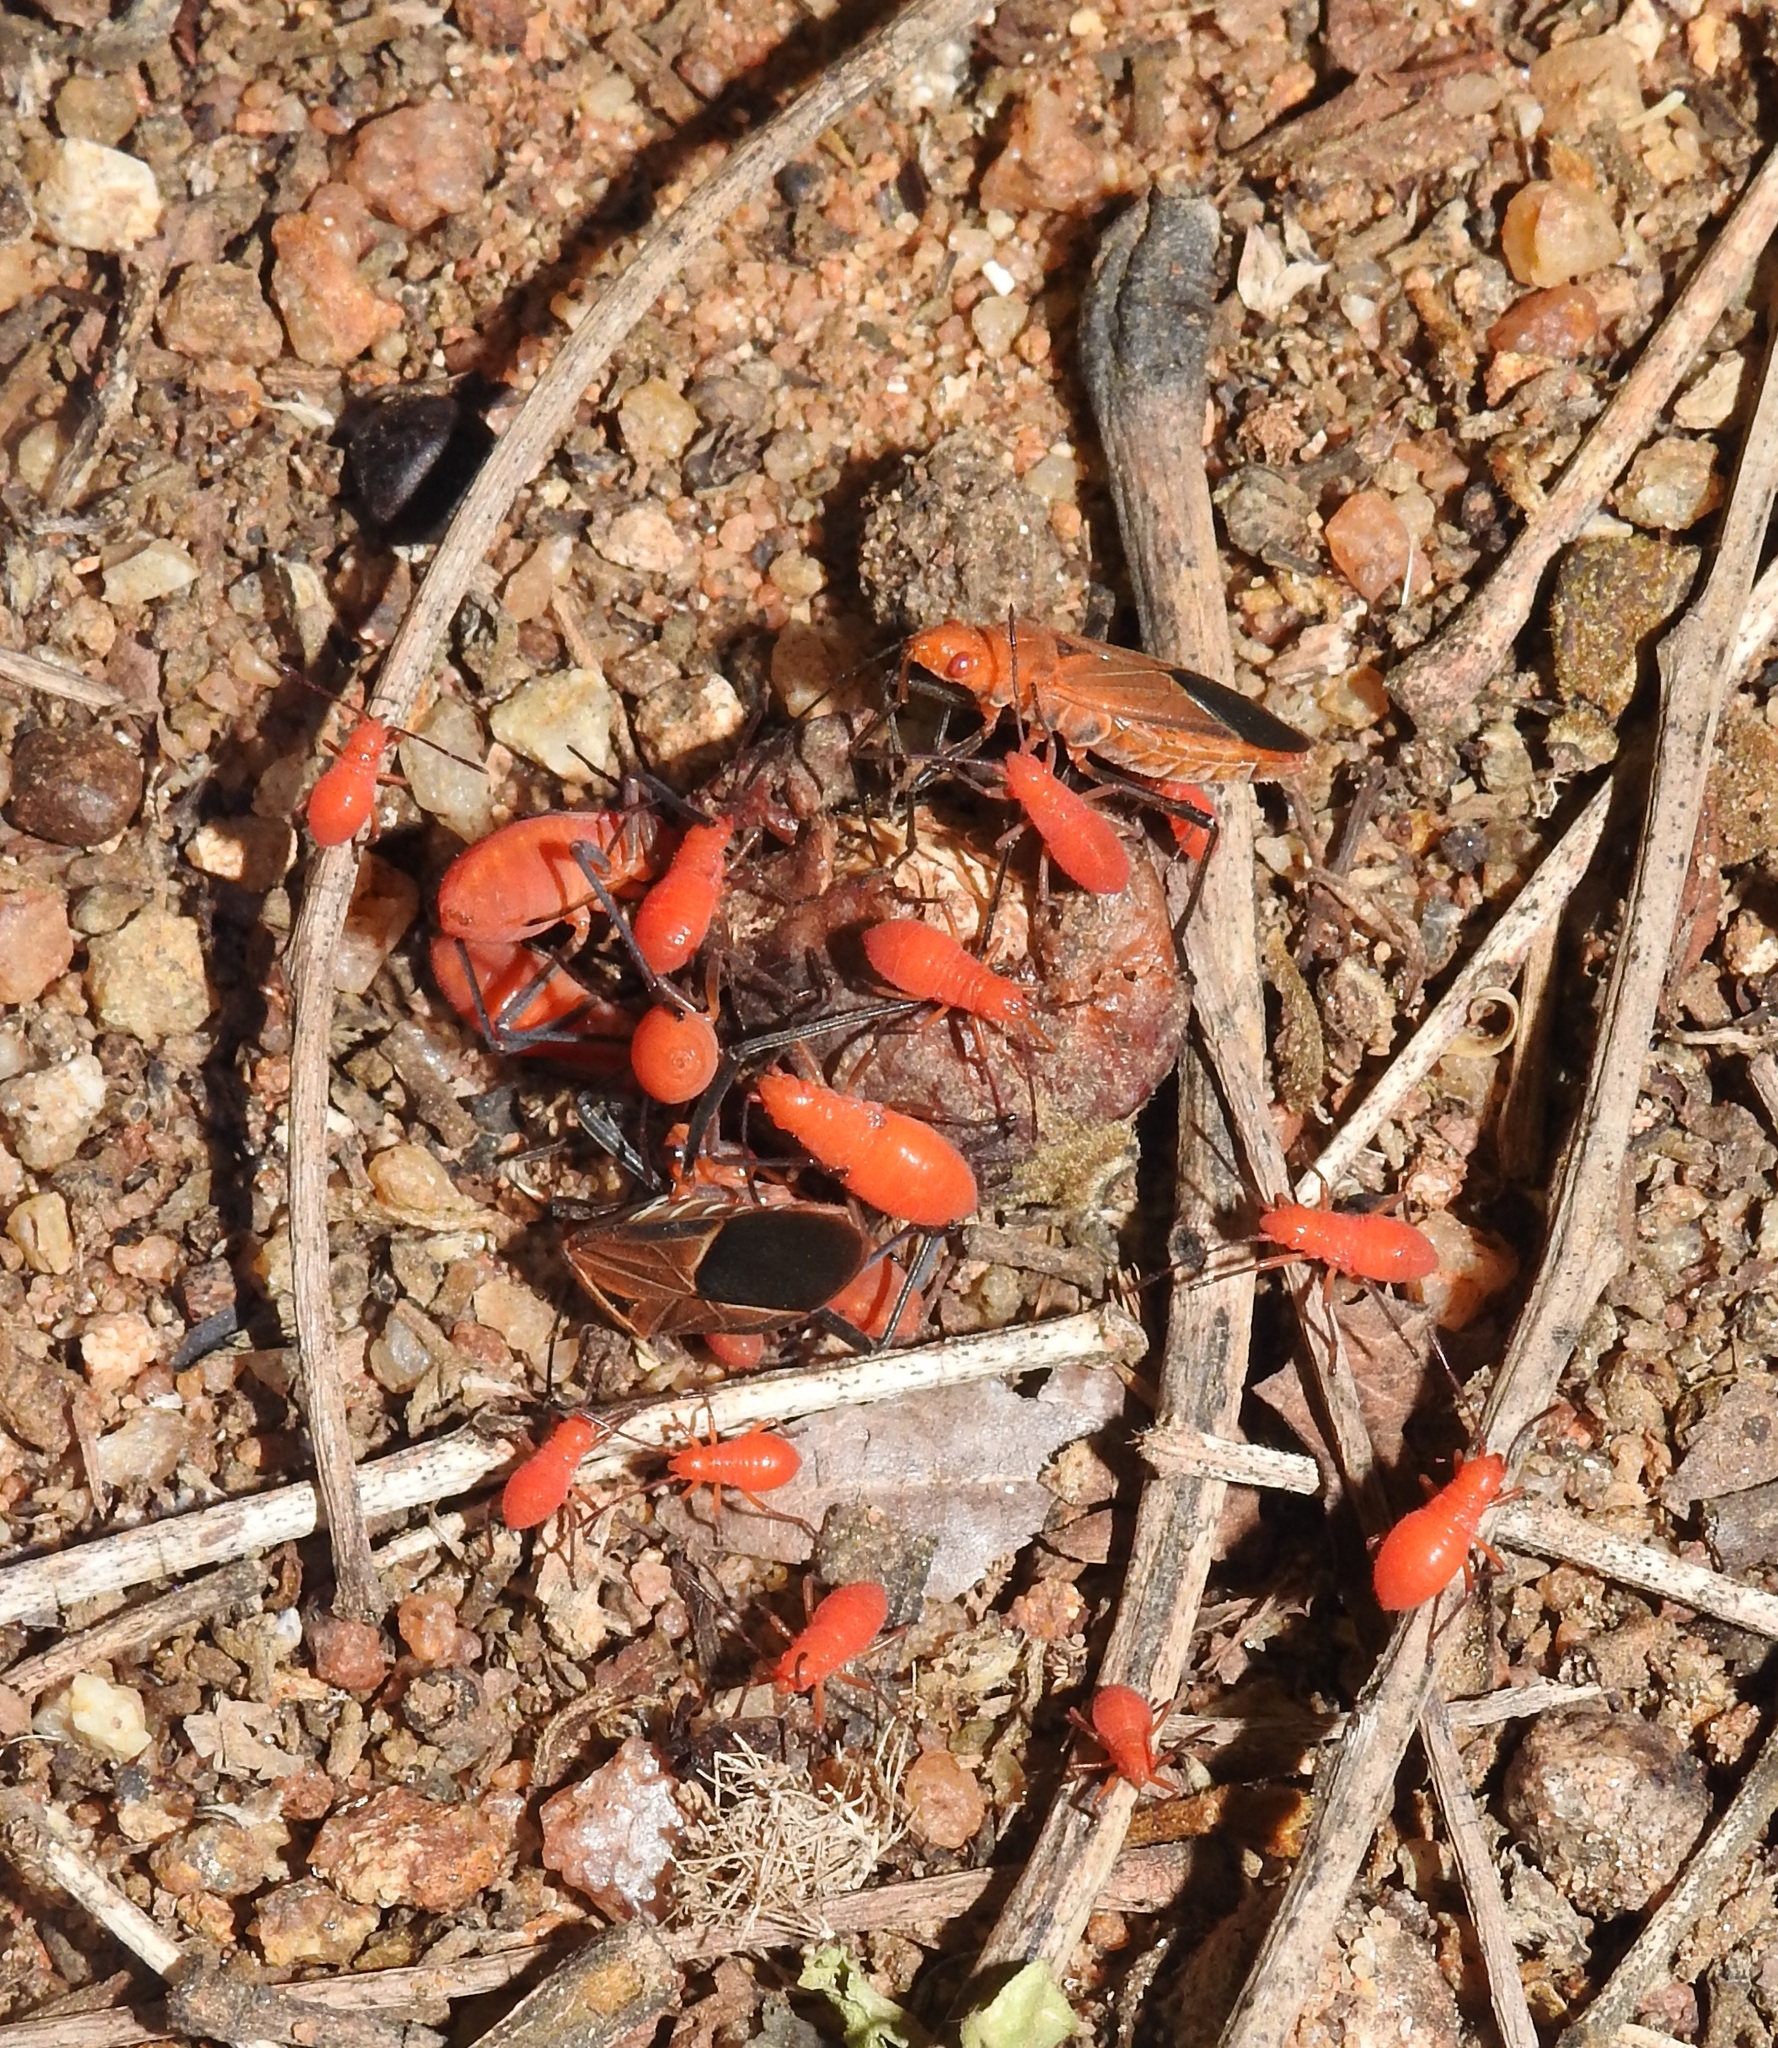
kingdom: Animalia
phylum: Arthropoda
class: Insecta
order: Hemiptera
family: Rhopalidae
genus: Boisea
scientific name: Boisea coimbatorensis
